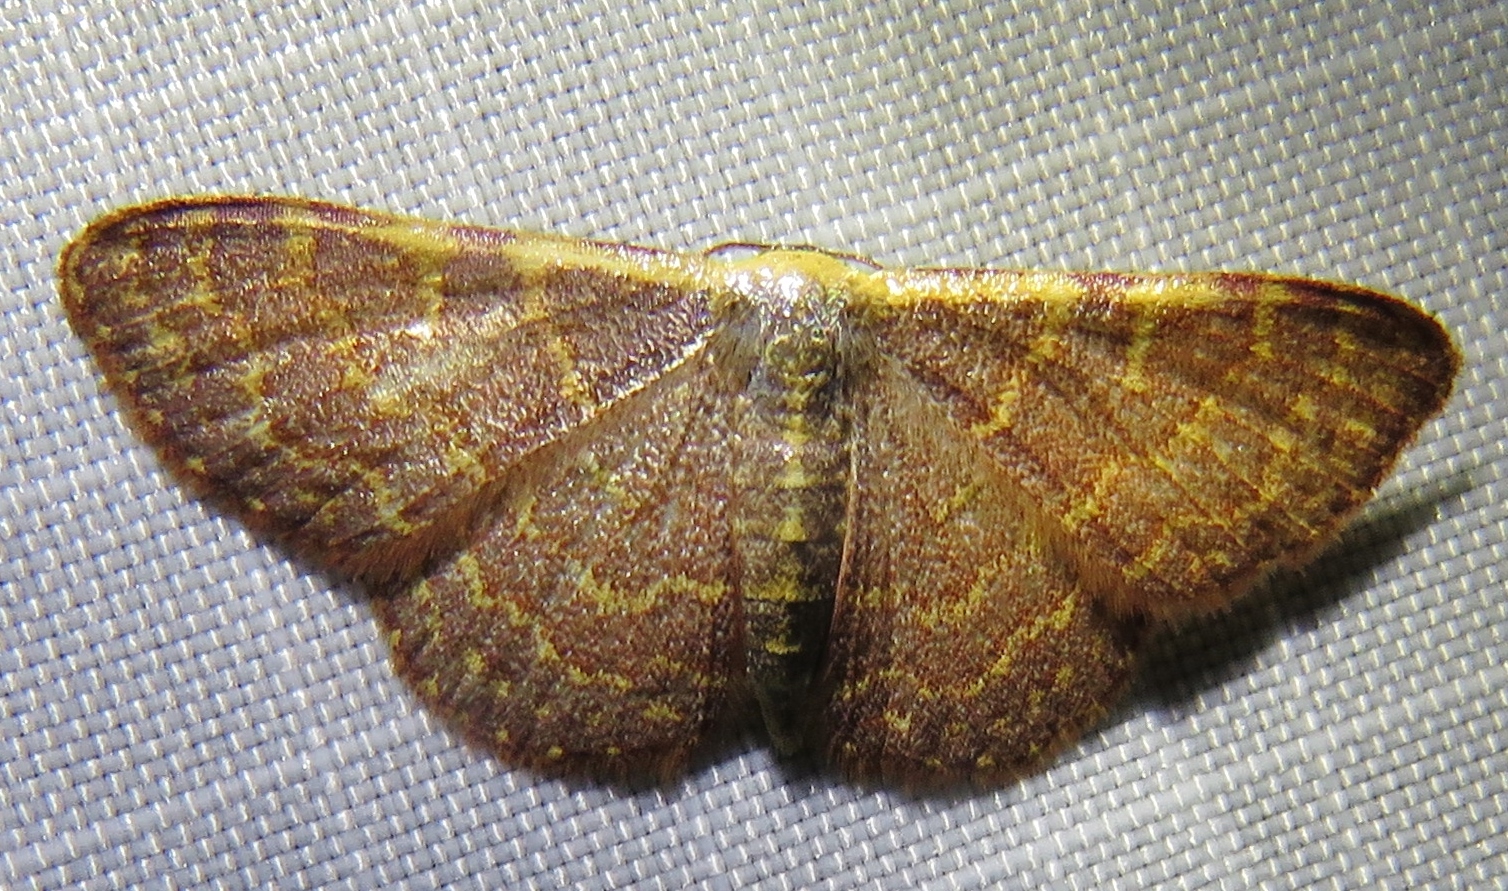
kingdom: Animalia
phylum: Arthropoda
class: Insecta
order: Lepidoptera
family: Geometridae
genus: Leptostales
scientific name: Leptostales pannaria
